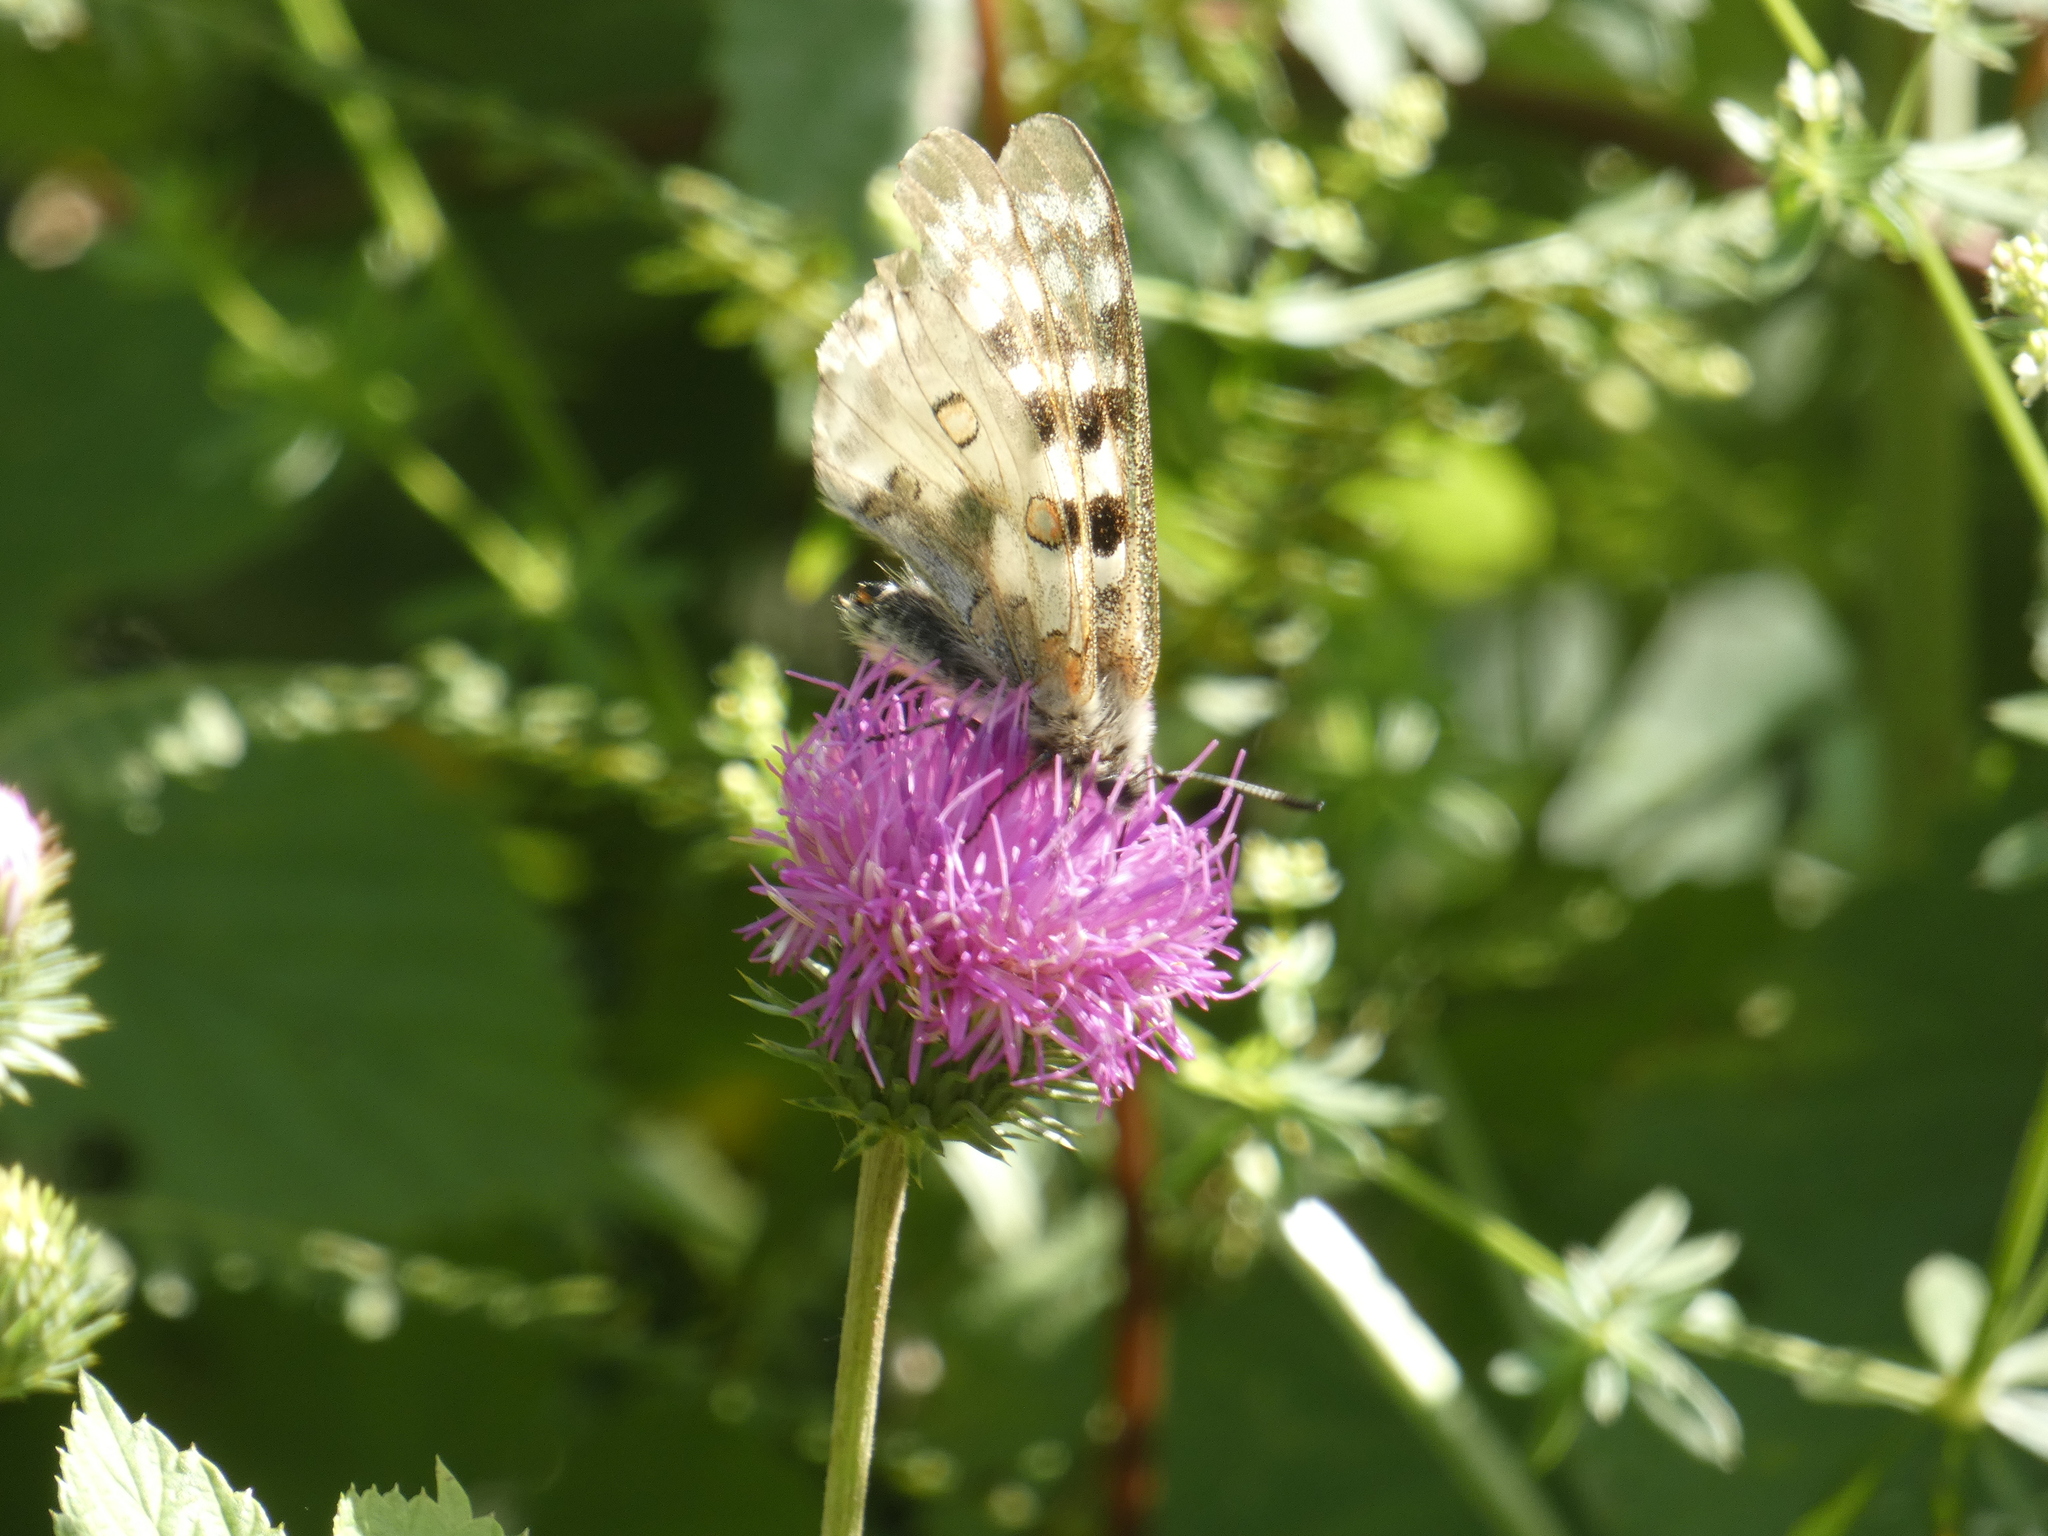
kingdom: Animalia
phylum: Arthropoda
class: Insecta
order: Lepidoptera
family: Papilionidae
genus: Parnassius
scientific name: Parnassius apollo
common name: Apollo
